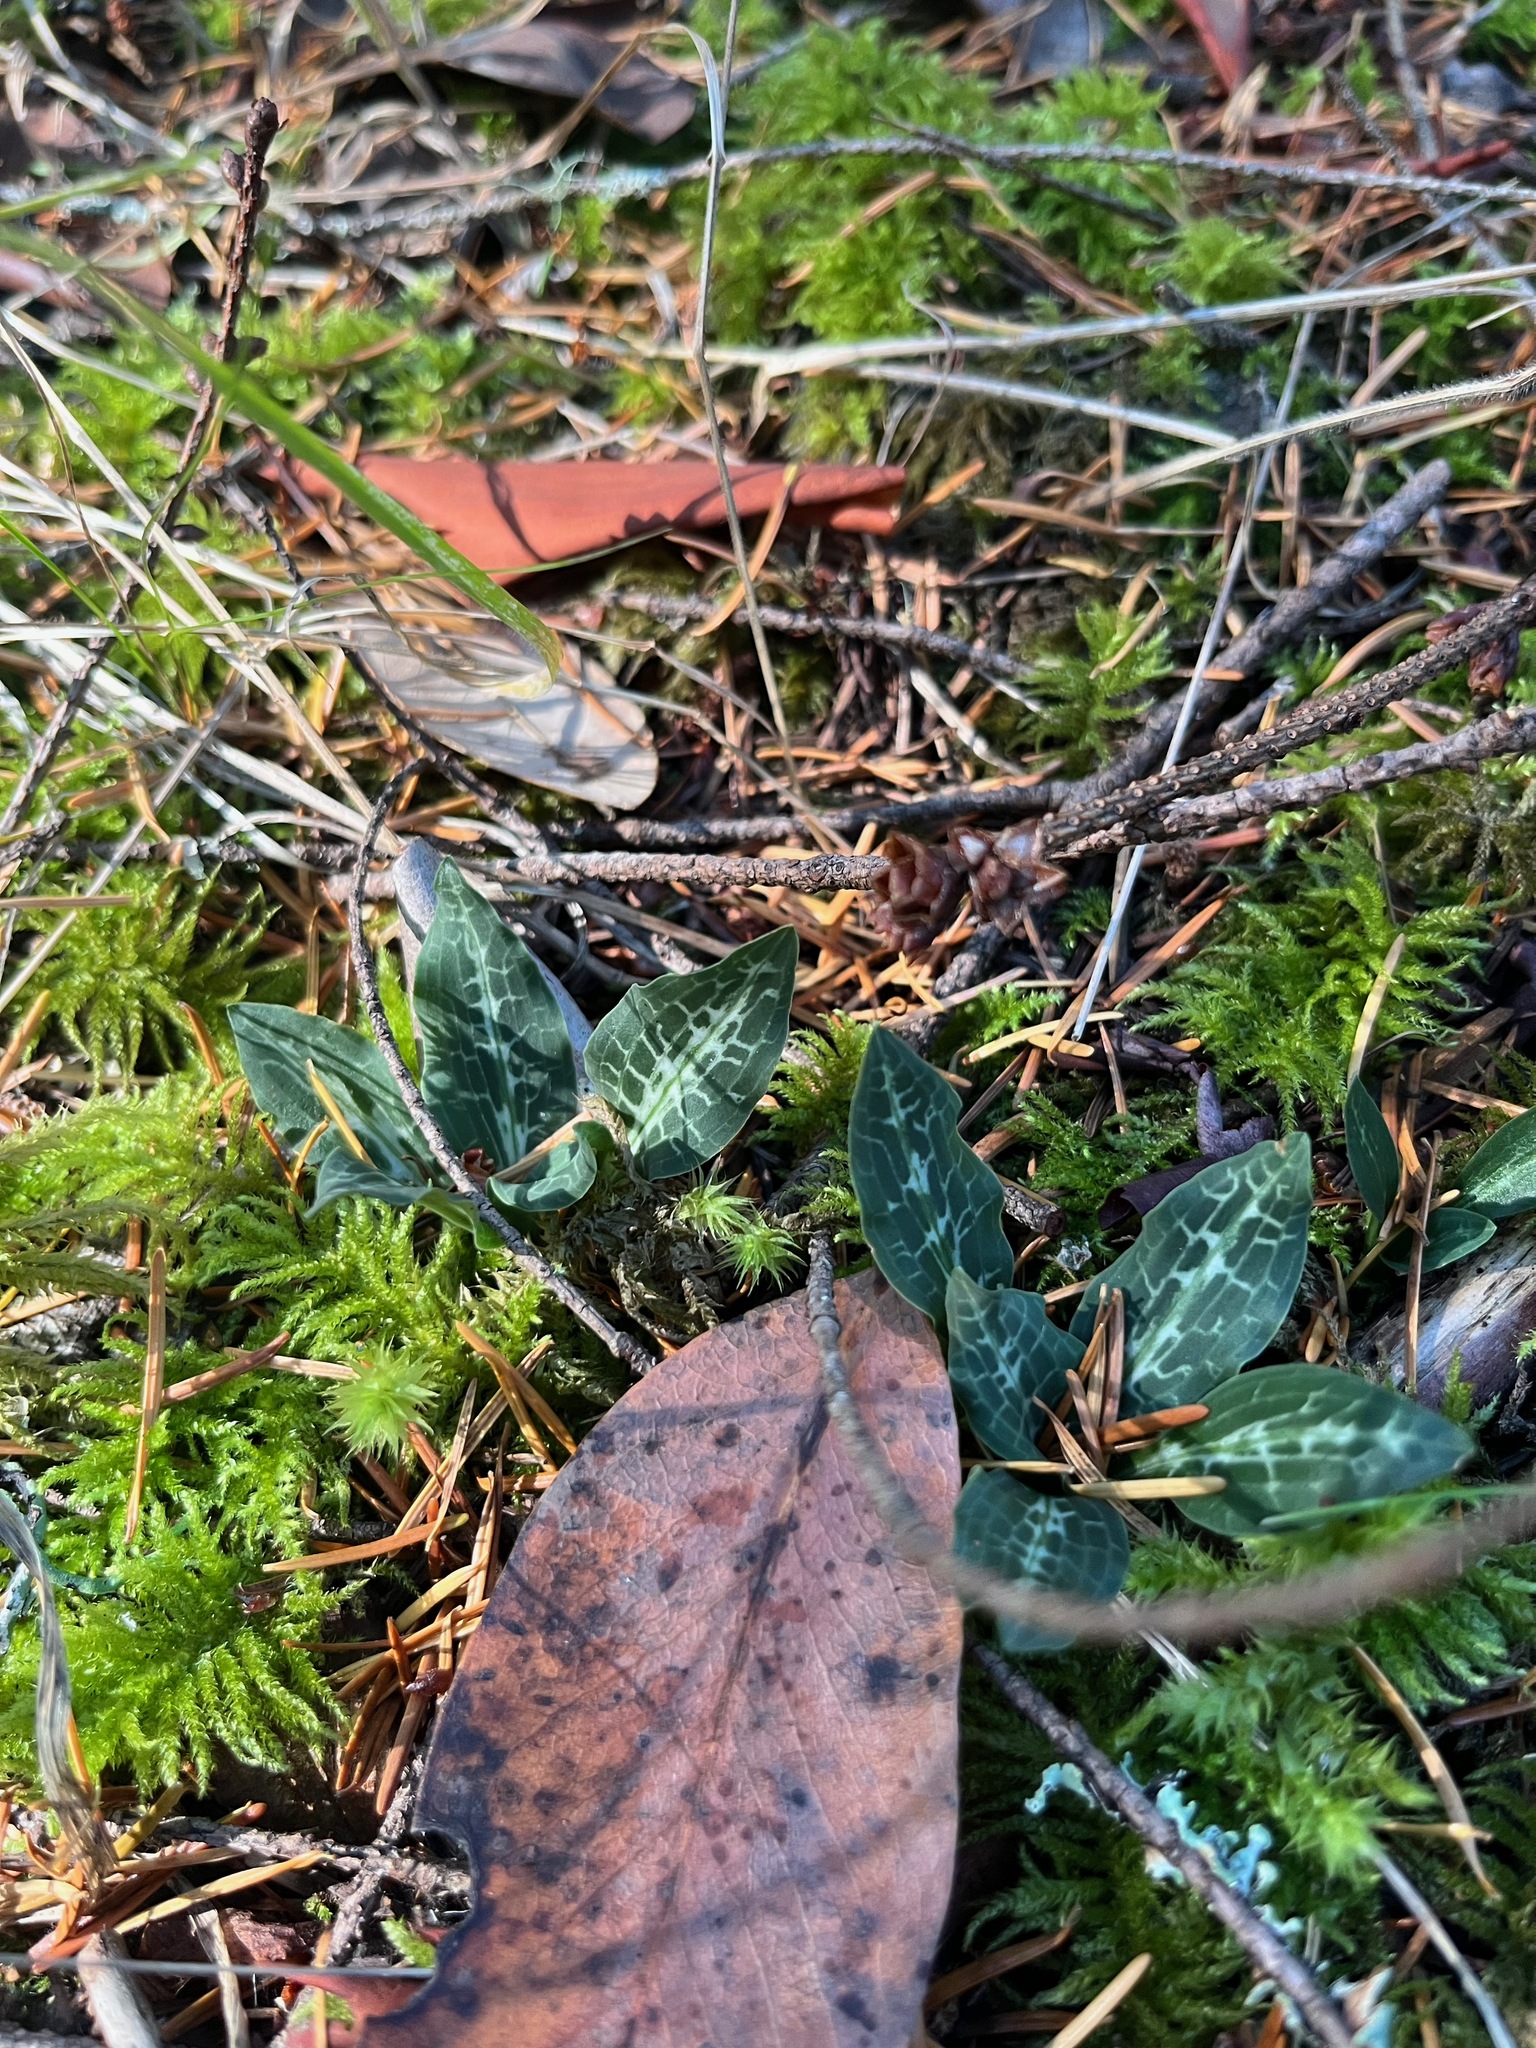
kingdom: Plantae
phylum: Tracheophyta
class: Liliopsida
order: Asparagales
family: Orchidaceae
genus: Goodyera
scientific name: Goodyera oblongifolia
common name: Giant rattlesnake-plantain
